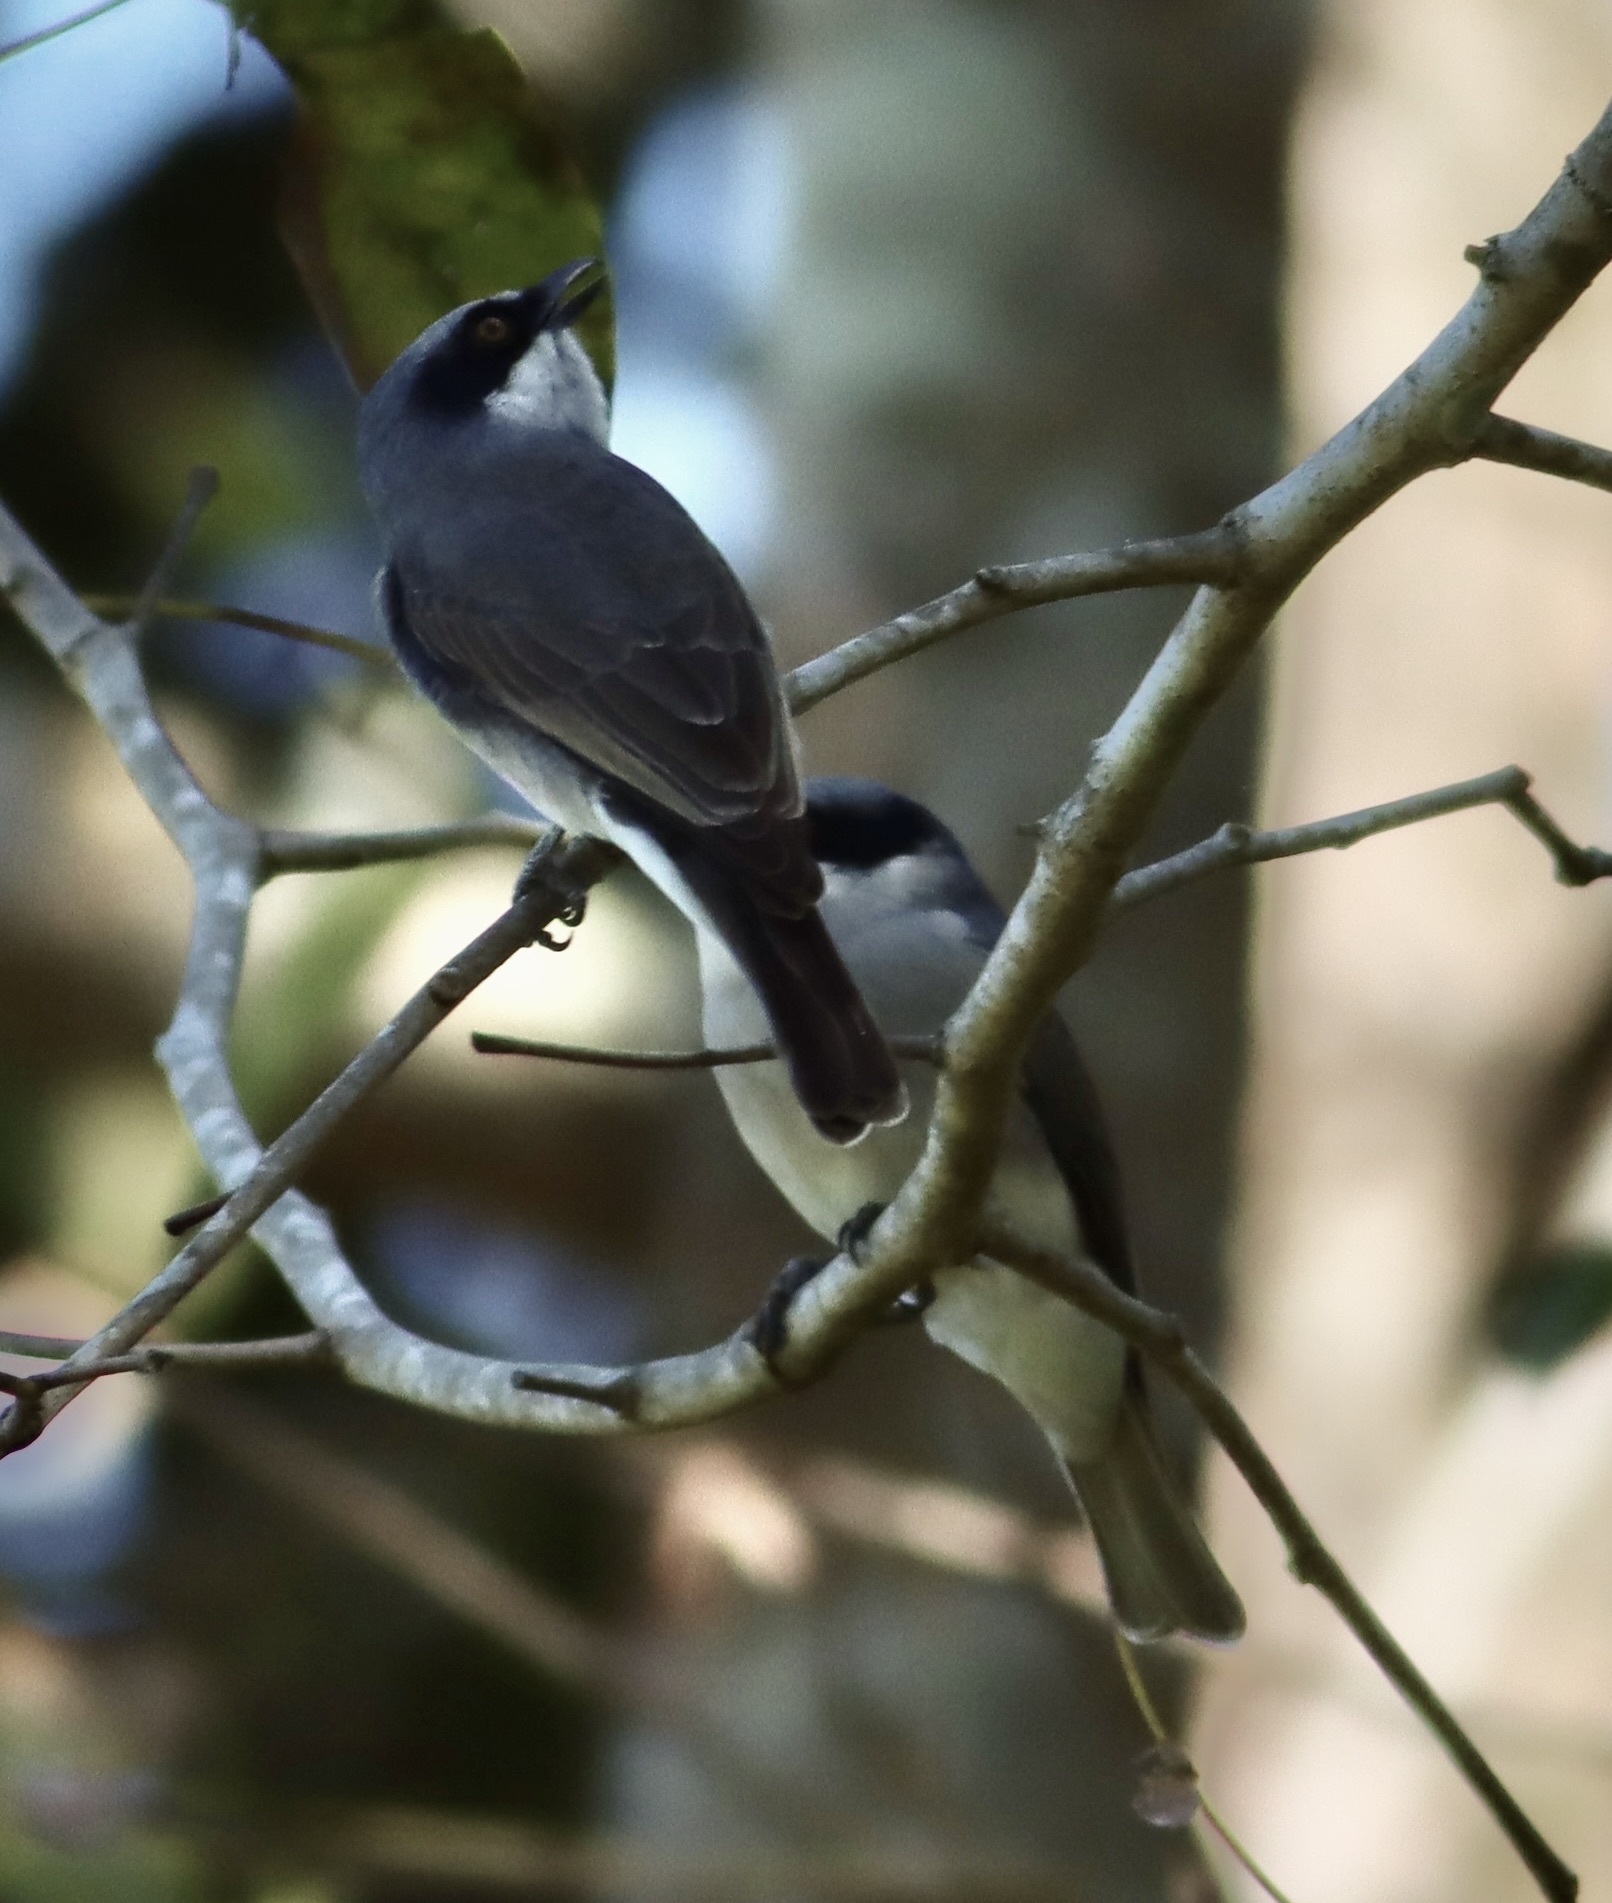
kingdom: Animalia
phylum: Chordata
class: Aves
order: Passeriformes
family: Tephrodornithidae
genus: Tephrodornis
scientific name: Tephrodornis virgatus
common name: Large woodshrike
